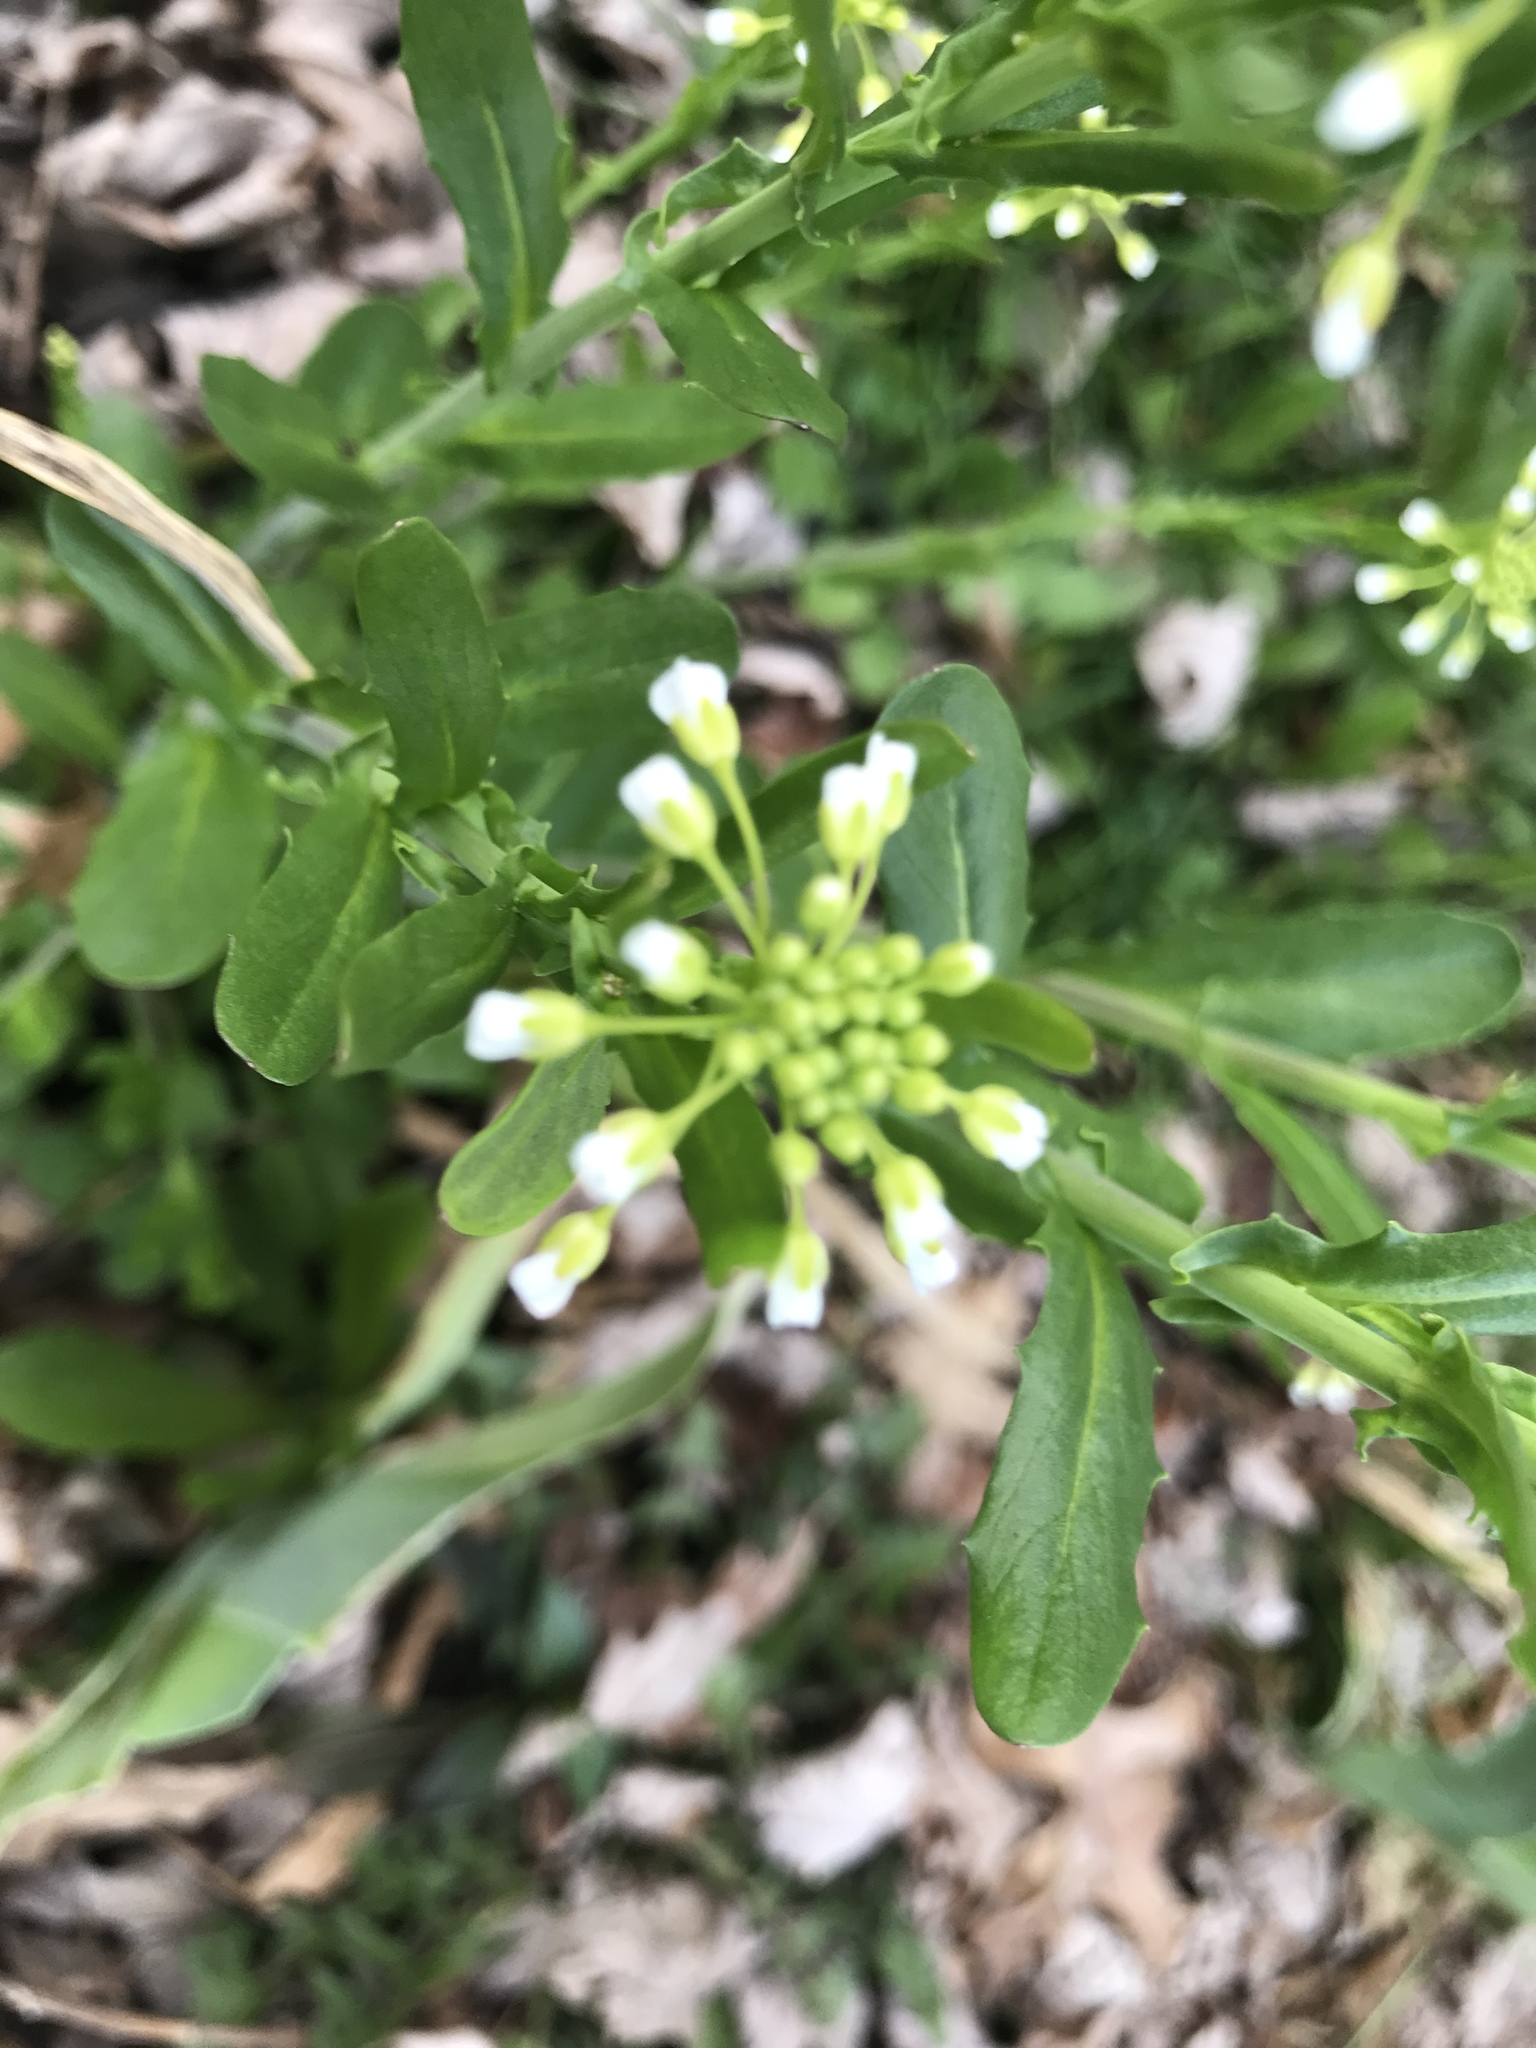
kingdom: Plantae
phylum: Tracheophyta
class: Magnoliopsida
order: Brassicales
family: Brassicaceae
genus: Mummenhoffia
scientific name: Mummenhoffia alliacea
